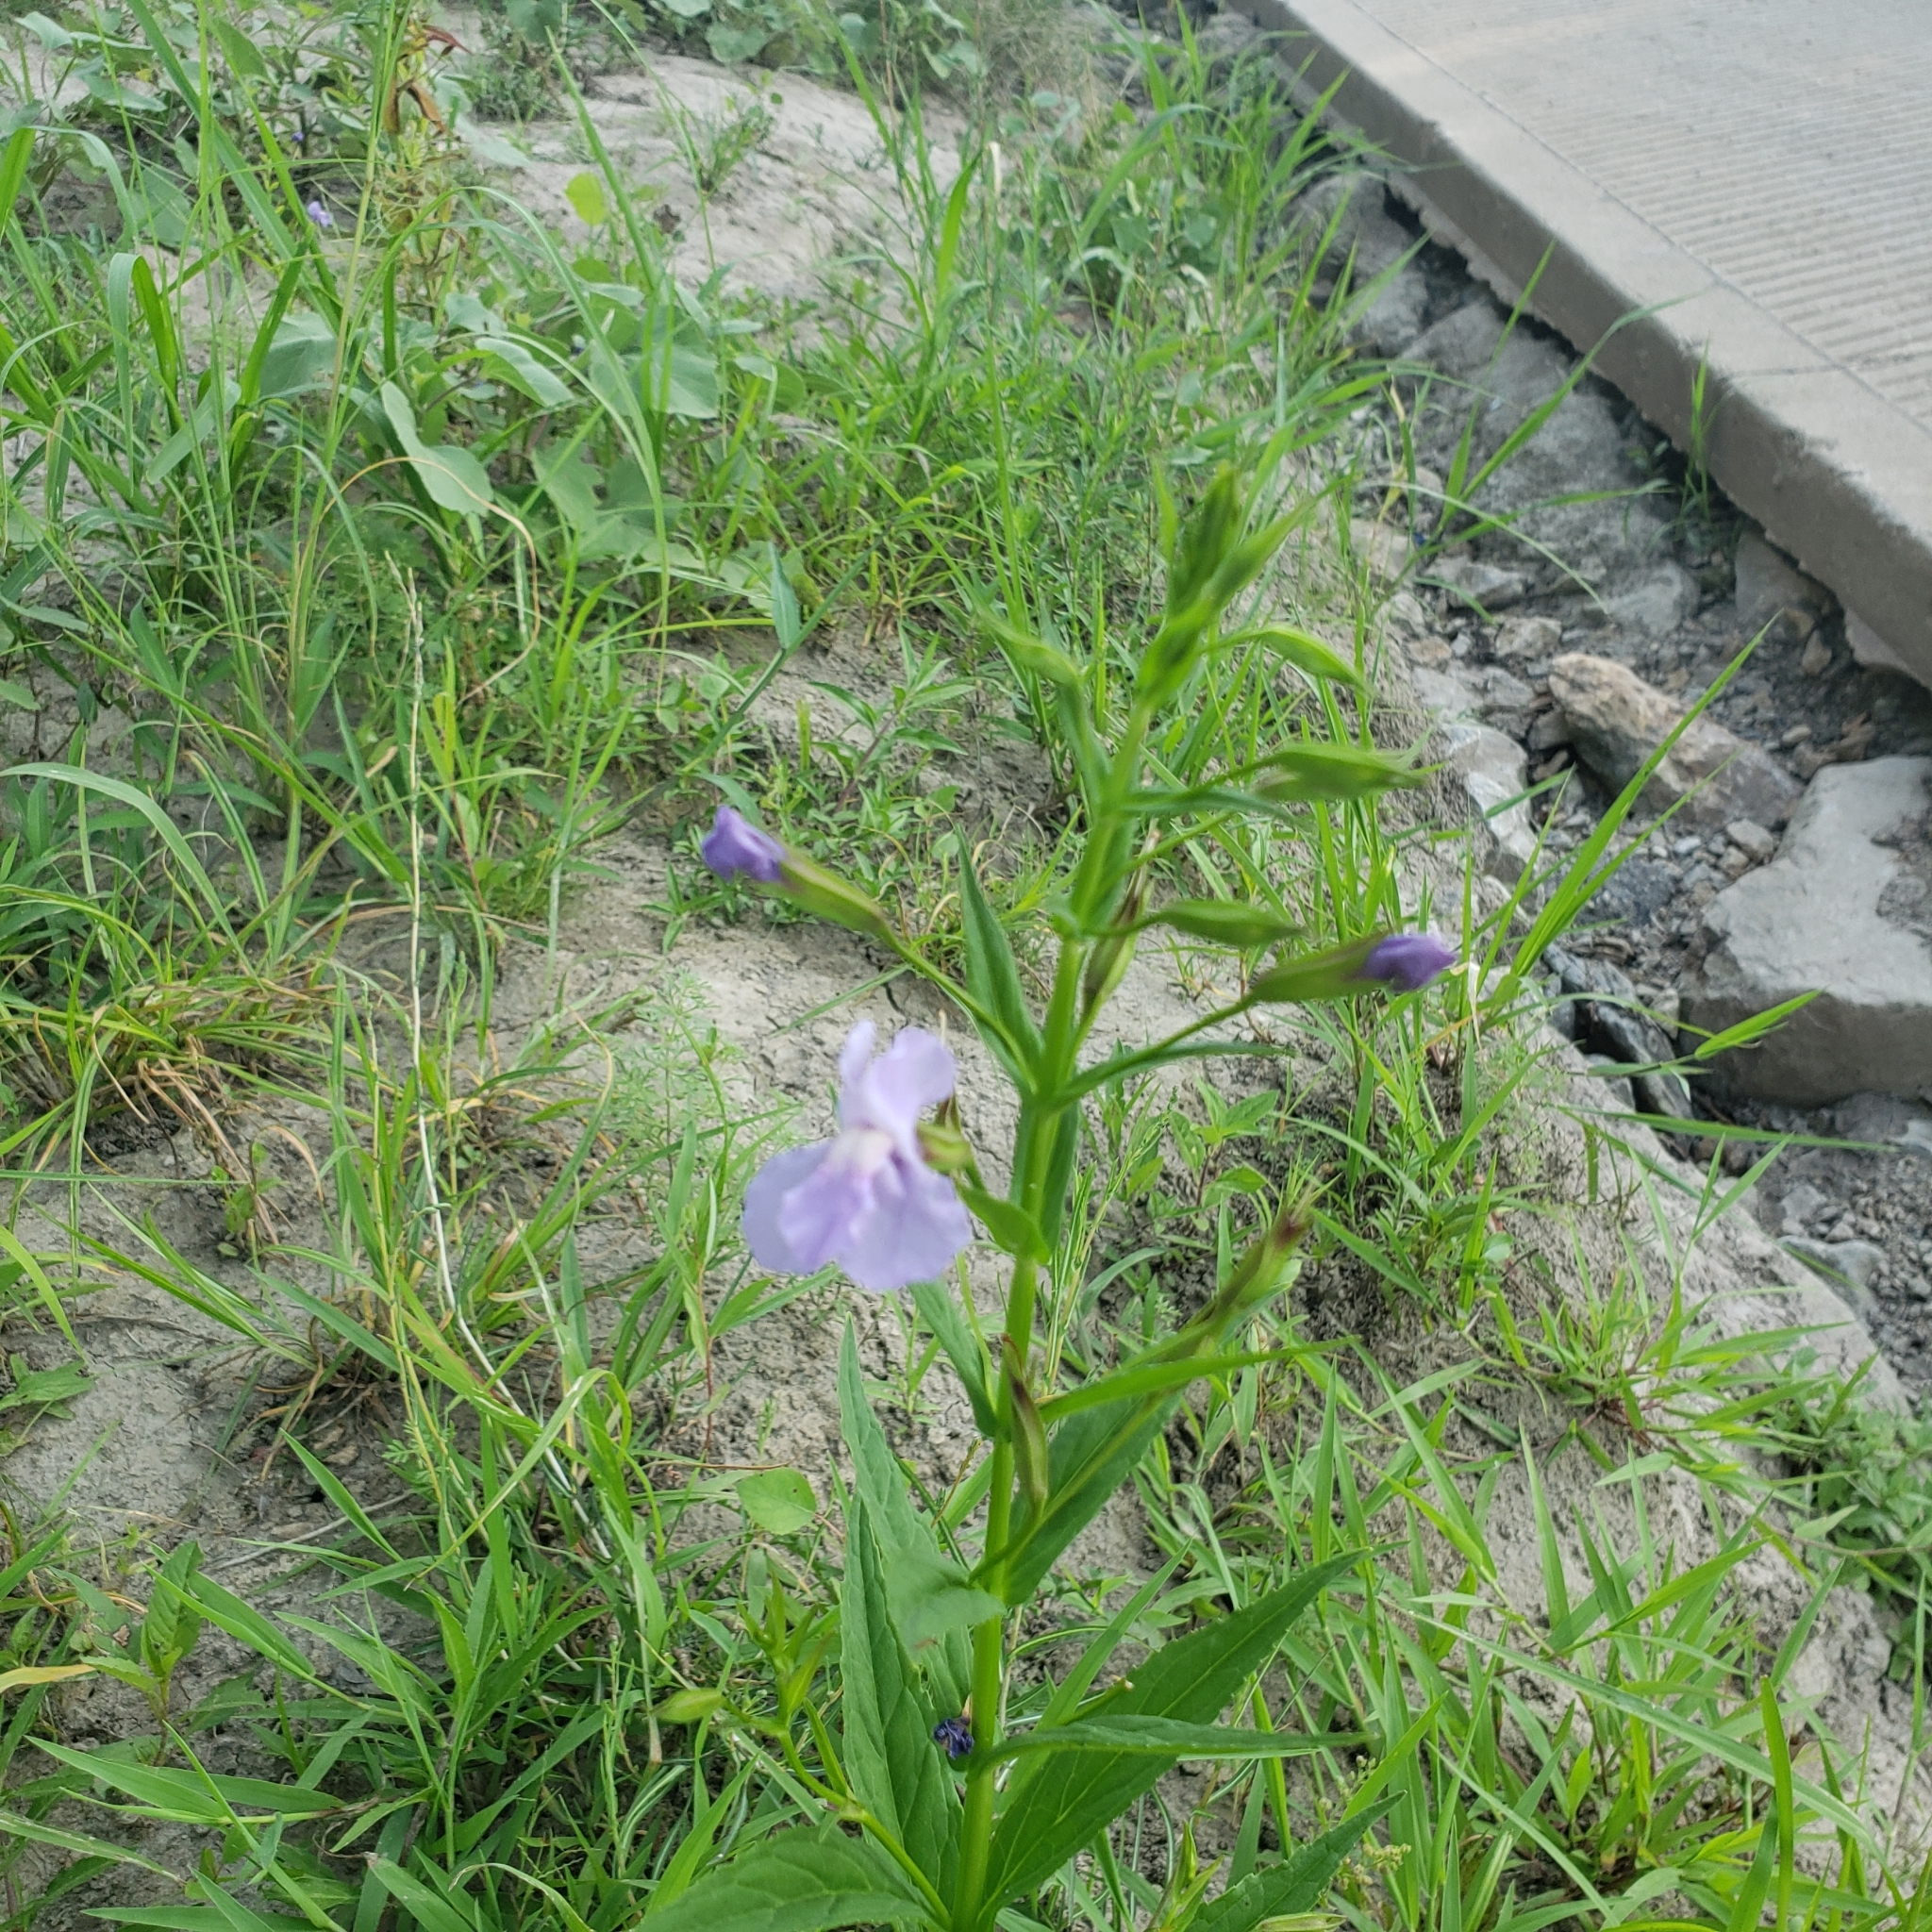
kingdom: Plantae
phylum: Tracheophyta
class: Magnoliopsida
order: Lamiales
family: Phrymaceae
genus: Mimulus
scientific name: Mimulus ringens
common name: Allegheny monkeyflower
